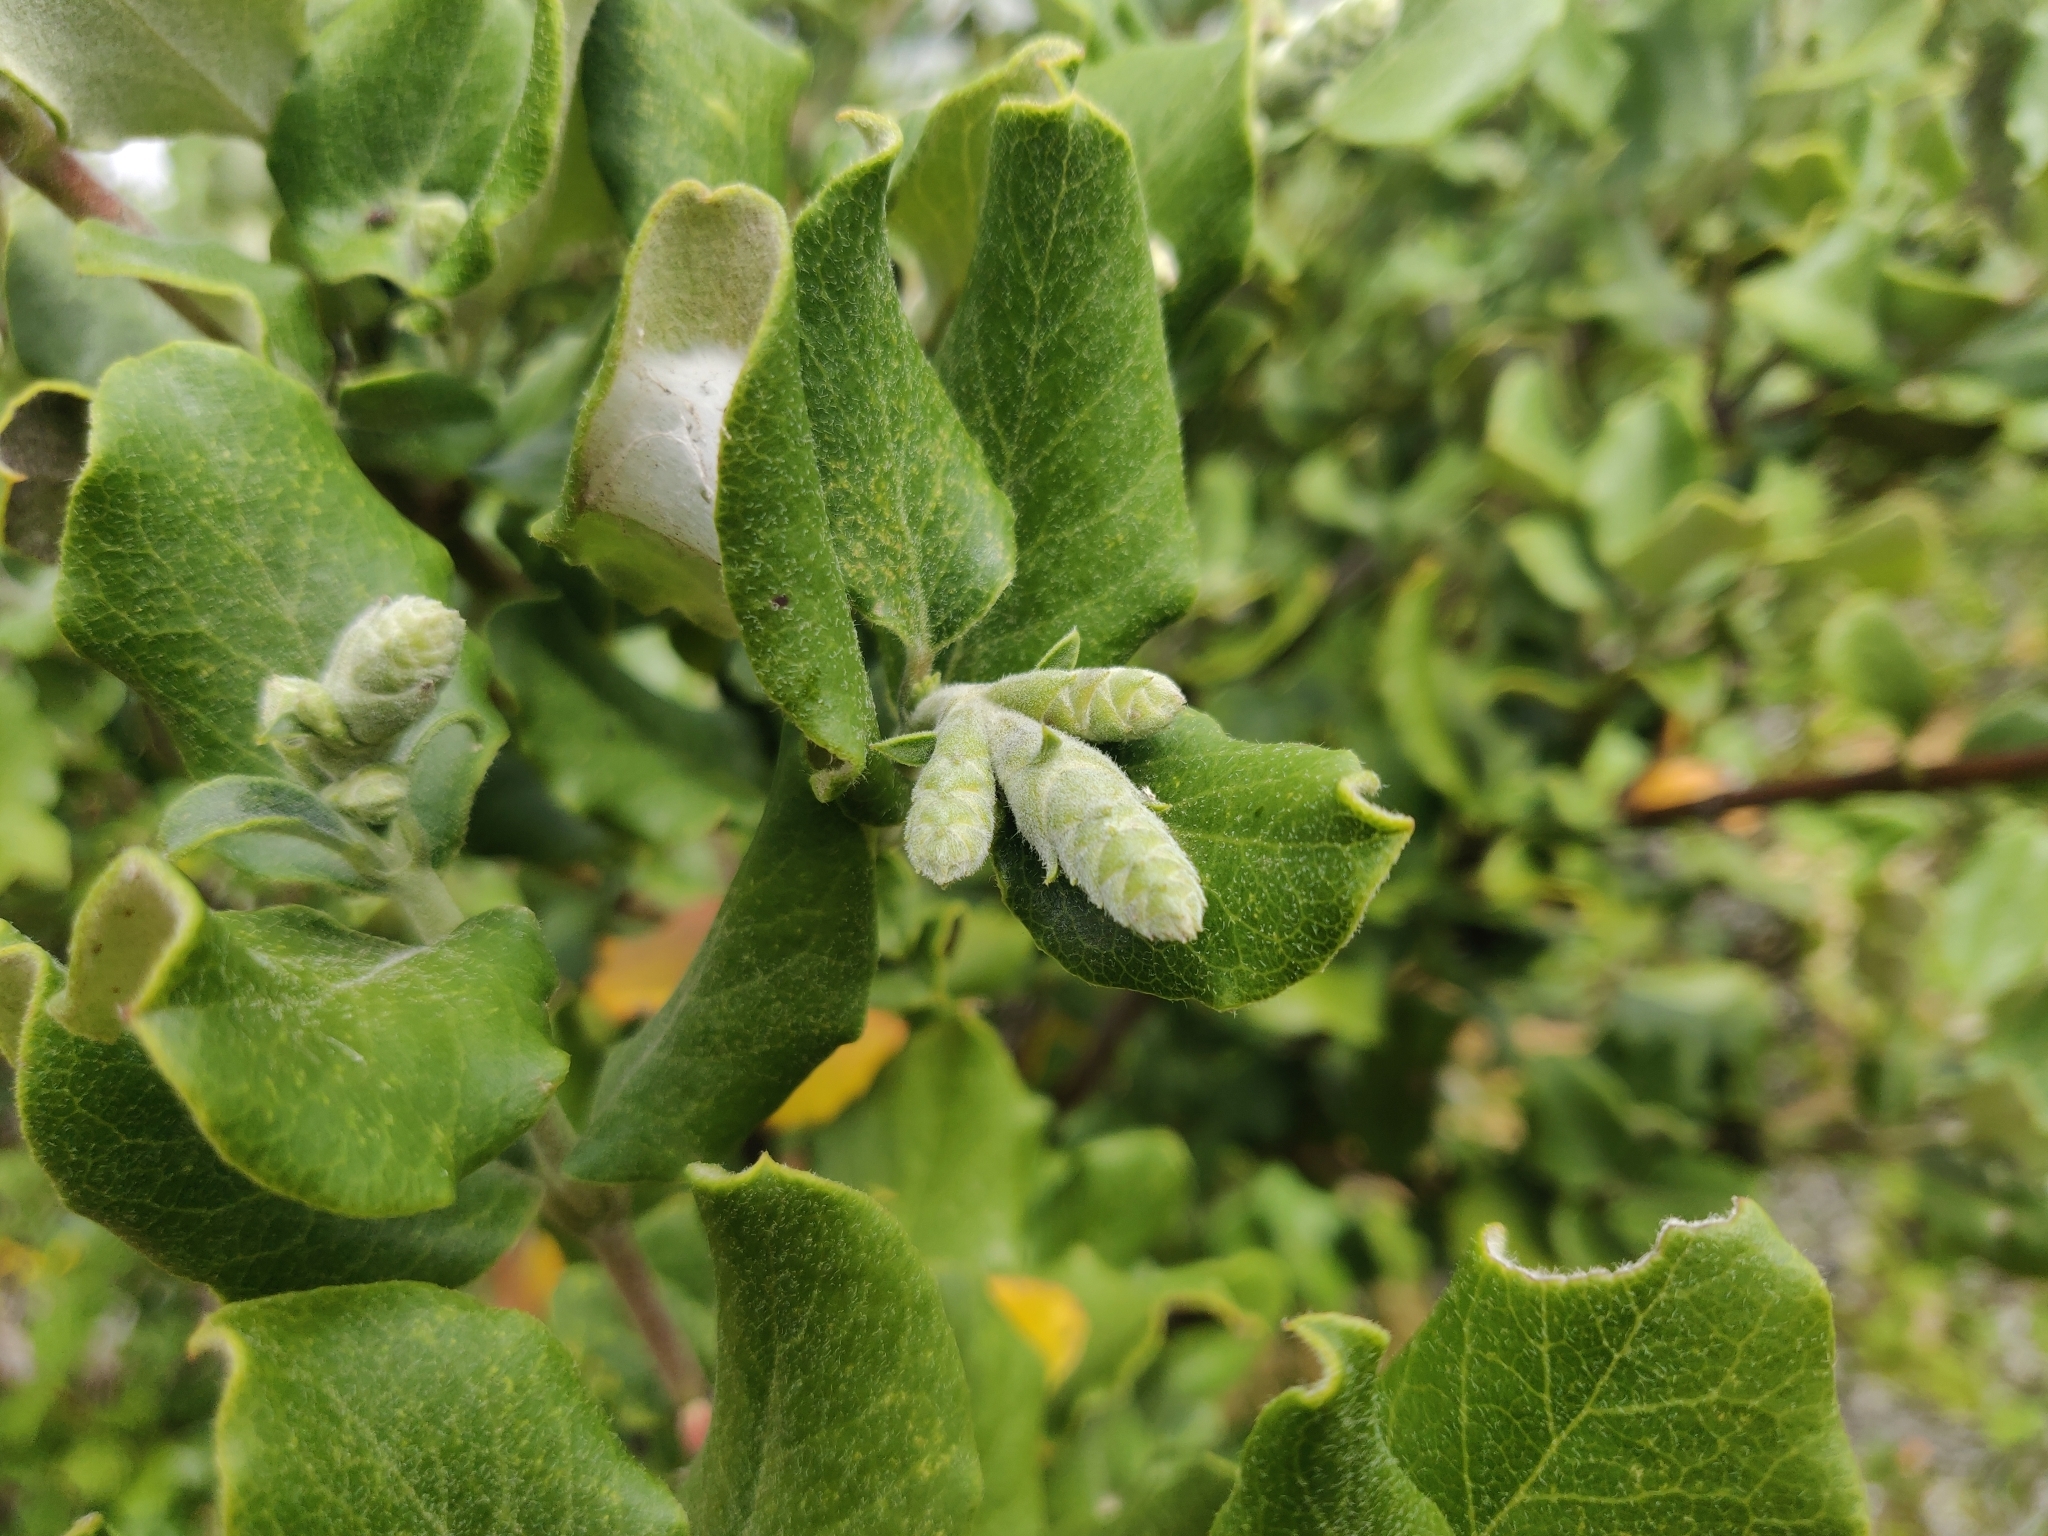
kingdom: Plantae
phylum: Tracheophyta
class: Magnoliopsida
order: Garryales
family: Garryaceae
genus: Garrya
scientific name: Garrya elliptica
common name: Silk-tassel
